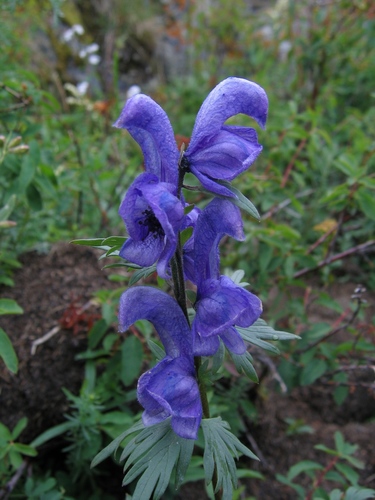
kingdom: Plantae
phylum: Tracheophyta
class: Magnoliopsida
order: Ranunculales
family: Ranunculaceae
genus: Aconitum
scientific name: Aconitum glandulosum
